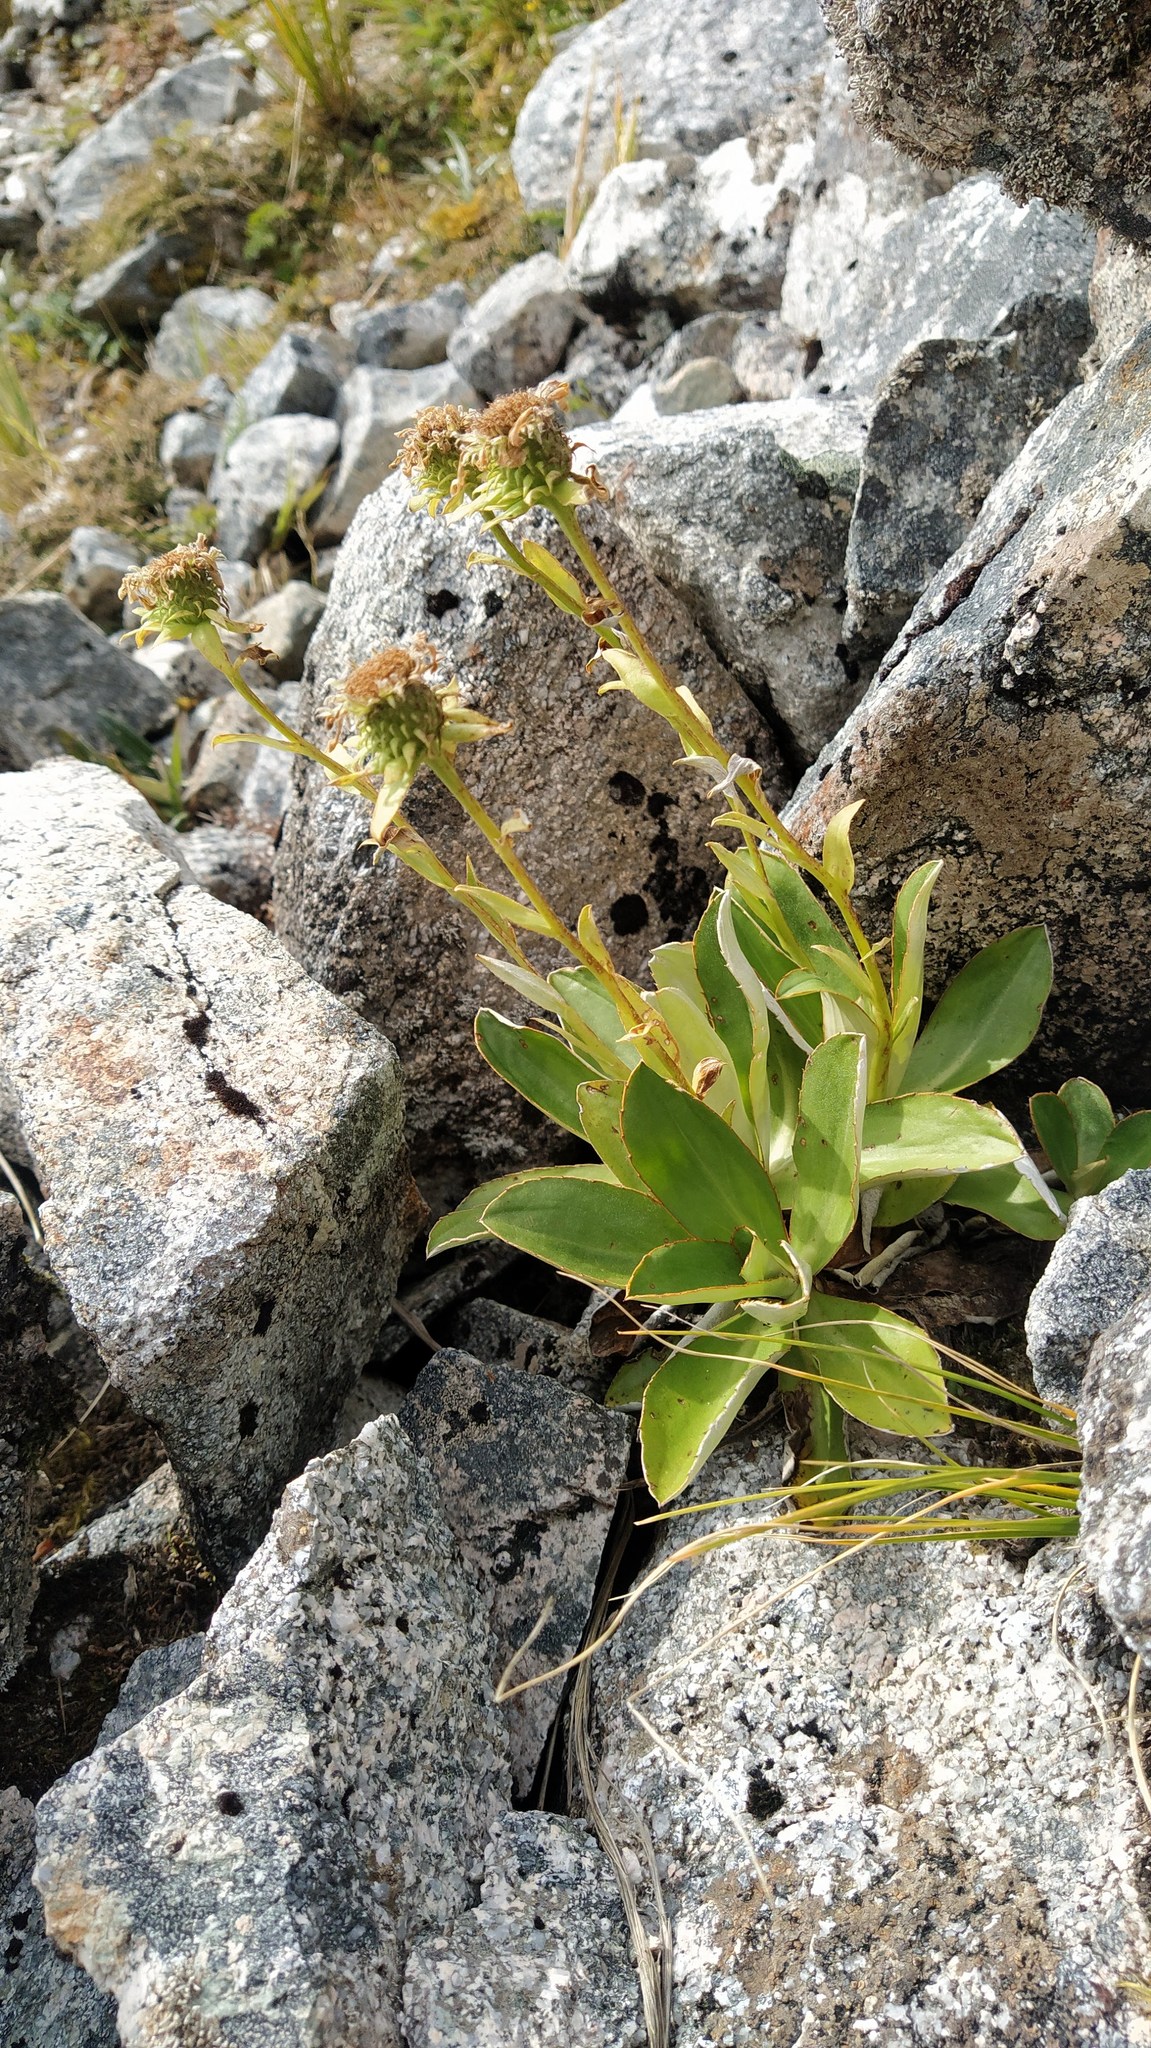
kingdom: Plantae
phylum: Tracheophyta
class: Magnoliopsida
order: Asterales
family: Asteraceae
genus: Celmisia
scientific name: Celmisia dallii
